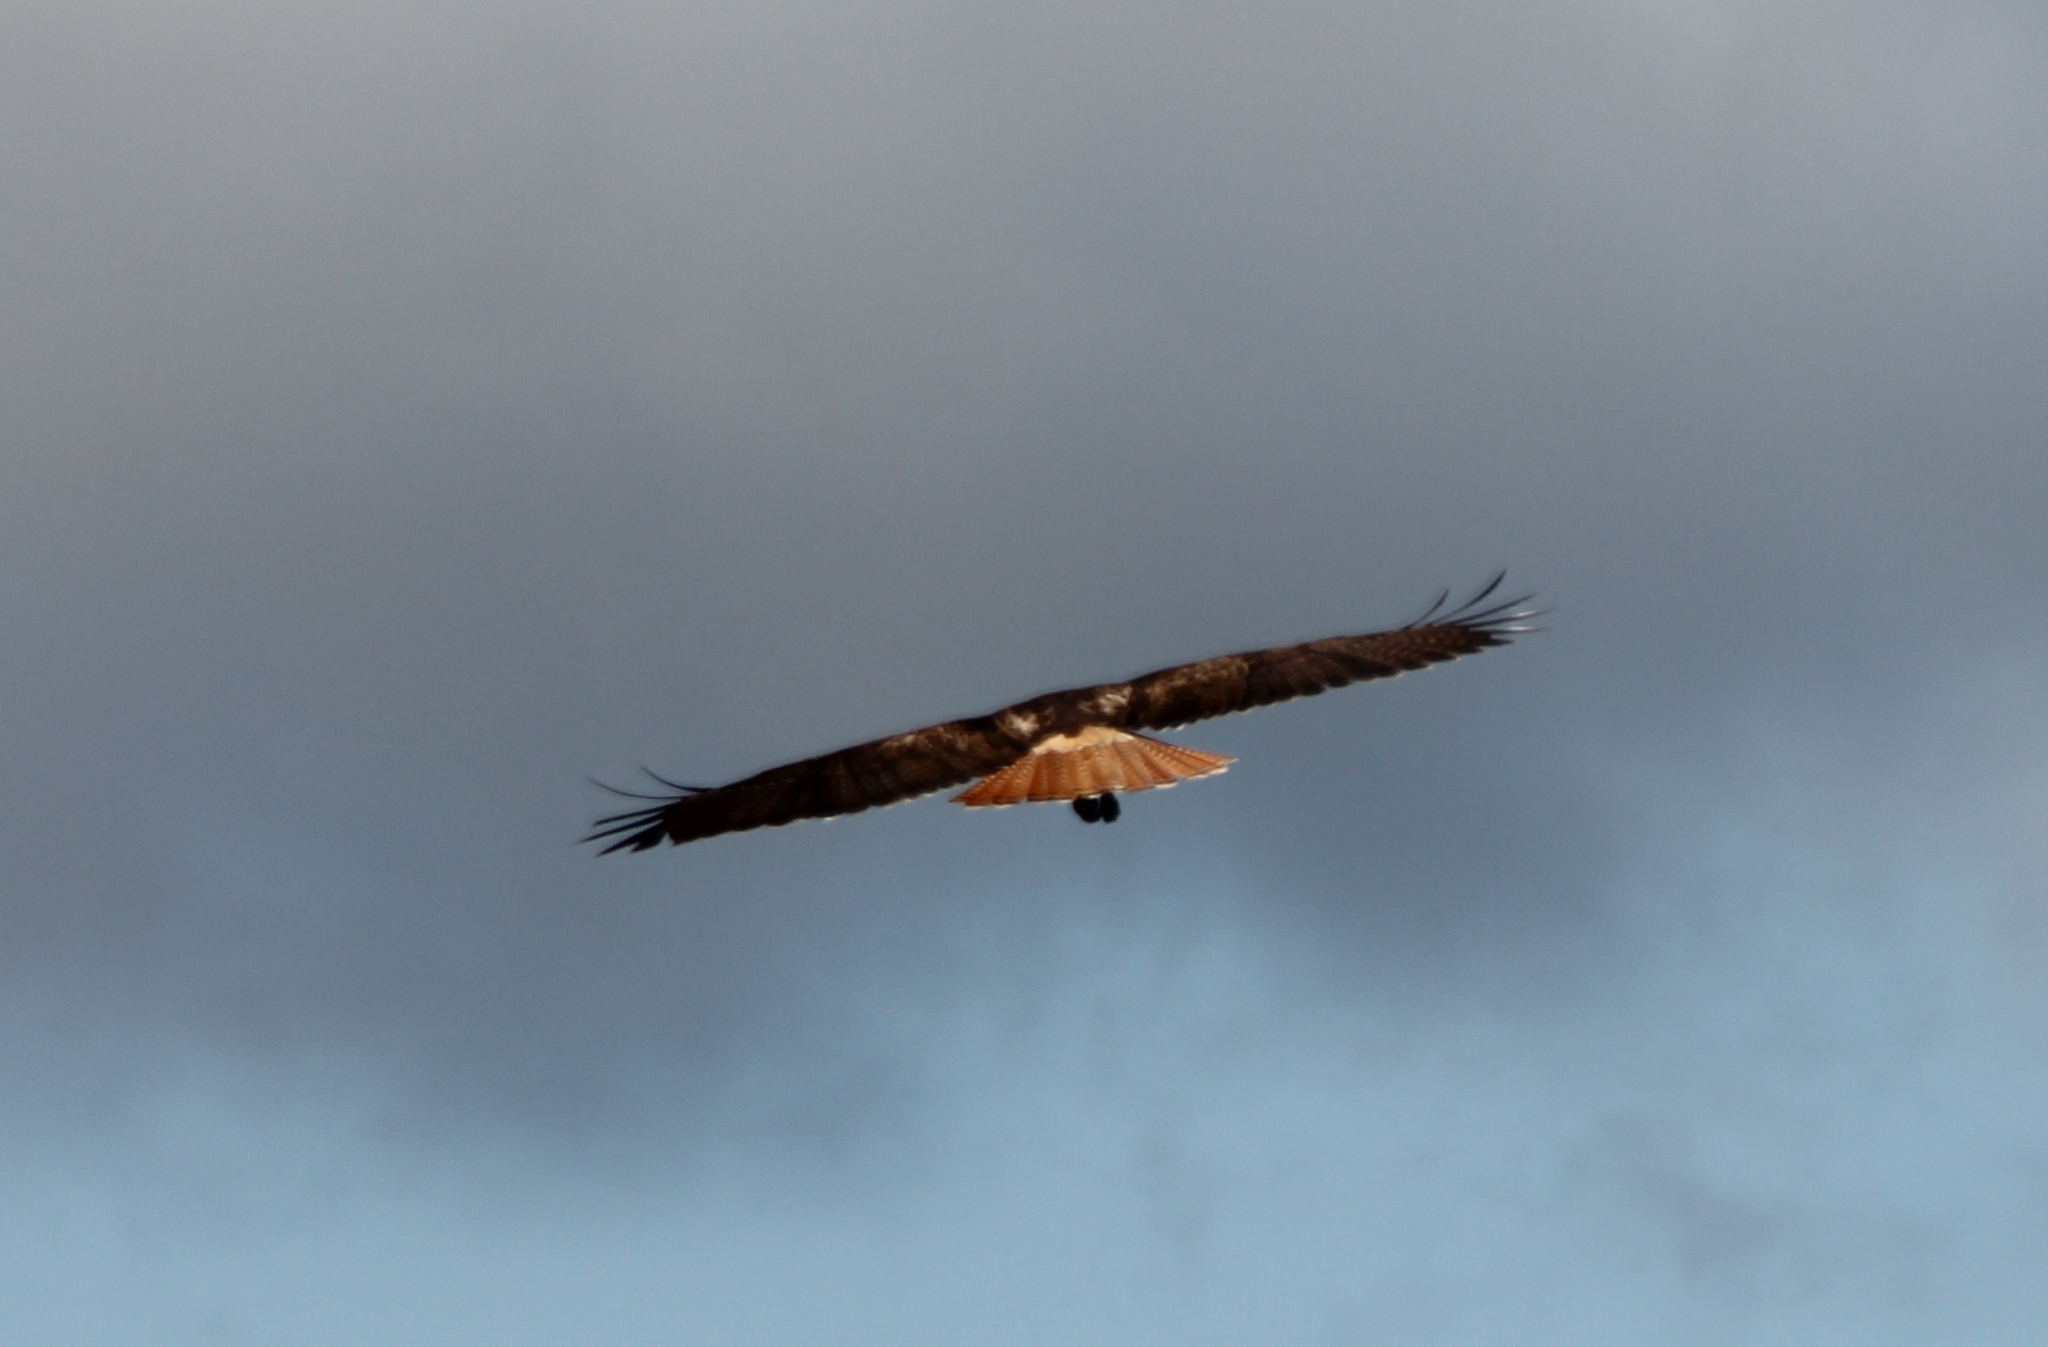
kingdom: Animalia
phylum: Chordata
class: Aves
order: Accipitriformes
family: Accipitridae
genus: Buteo
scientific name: Buteo jamaicensis
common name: Red-tailed hawk
